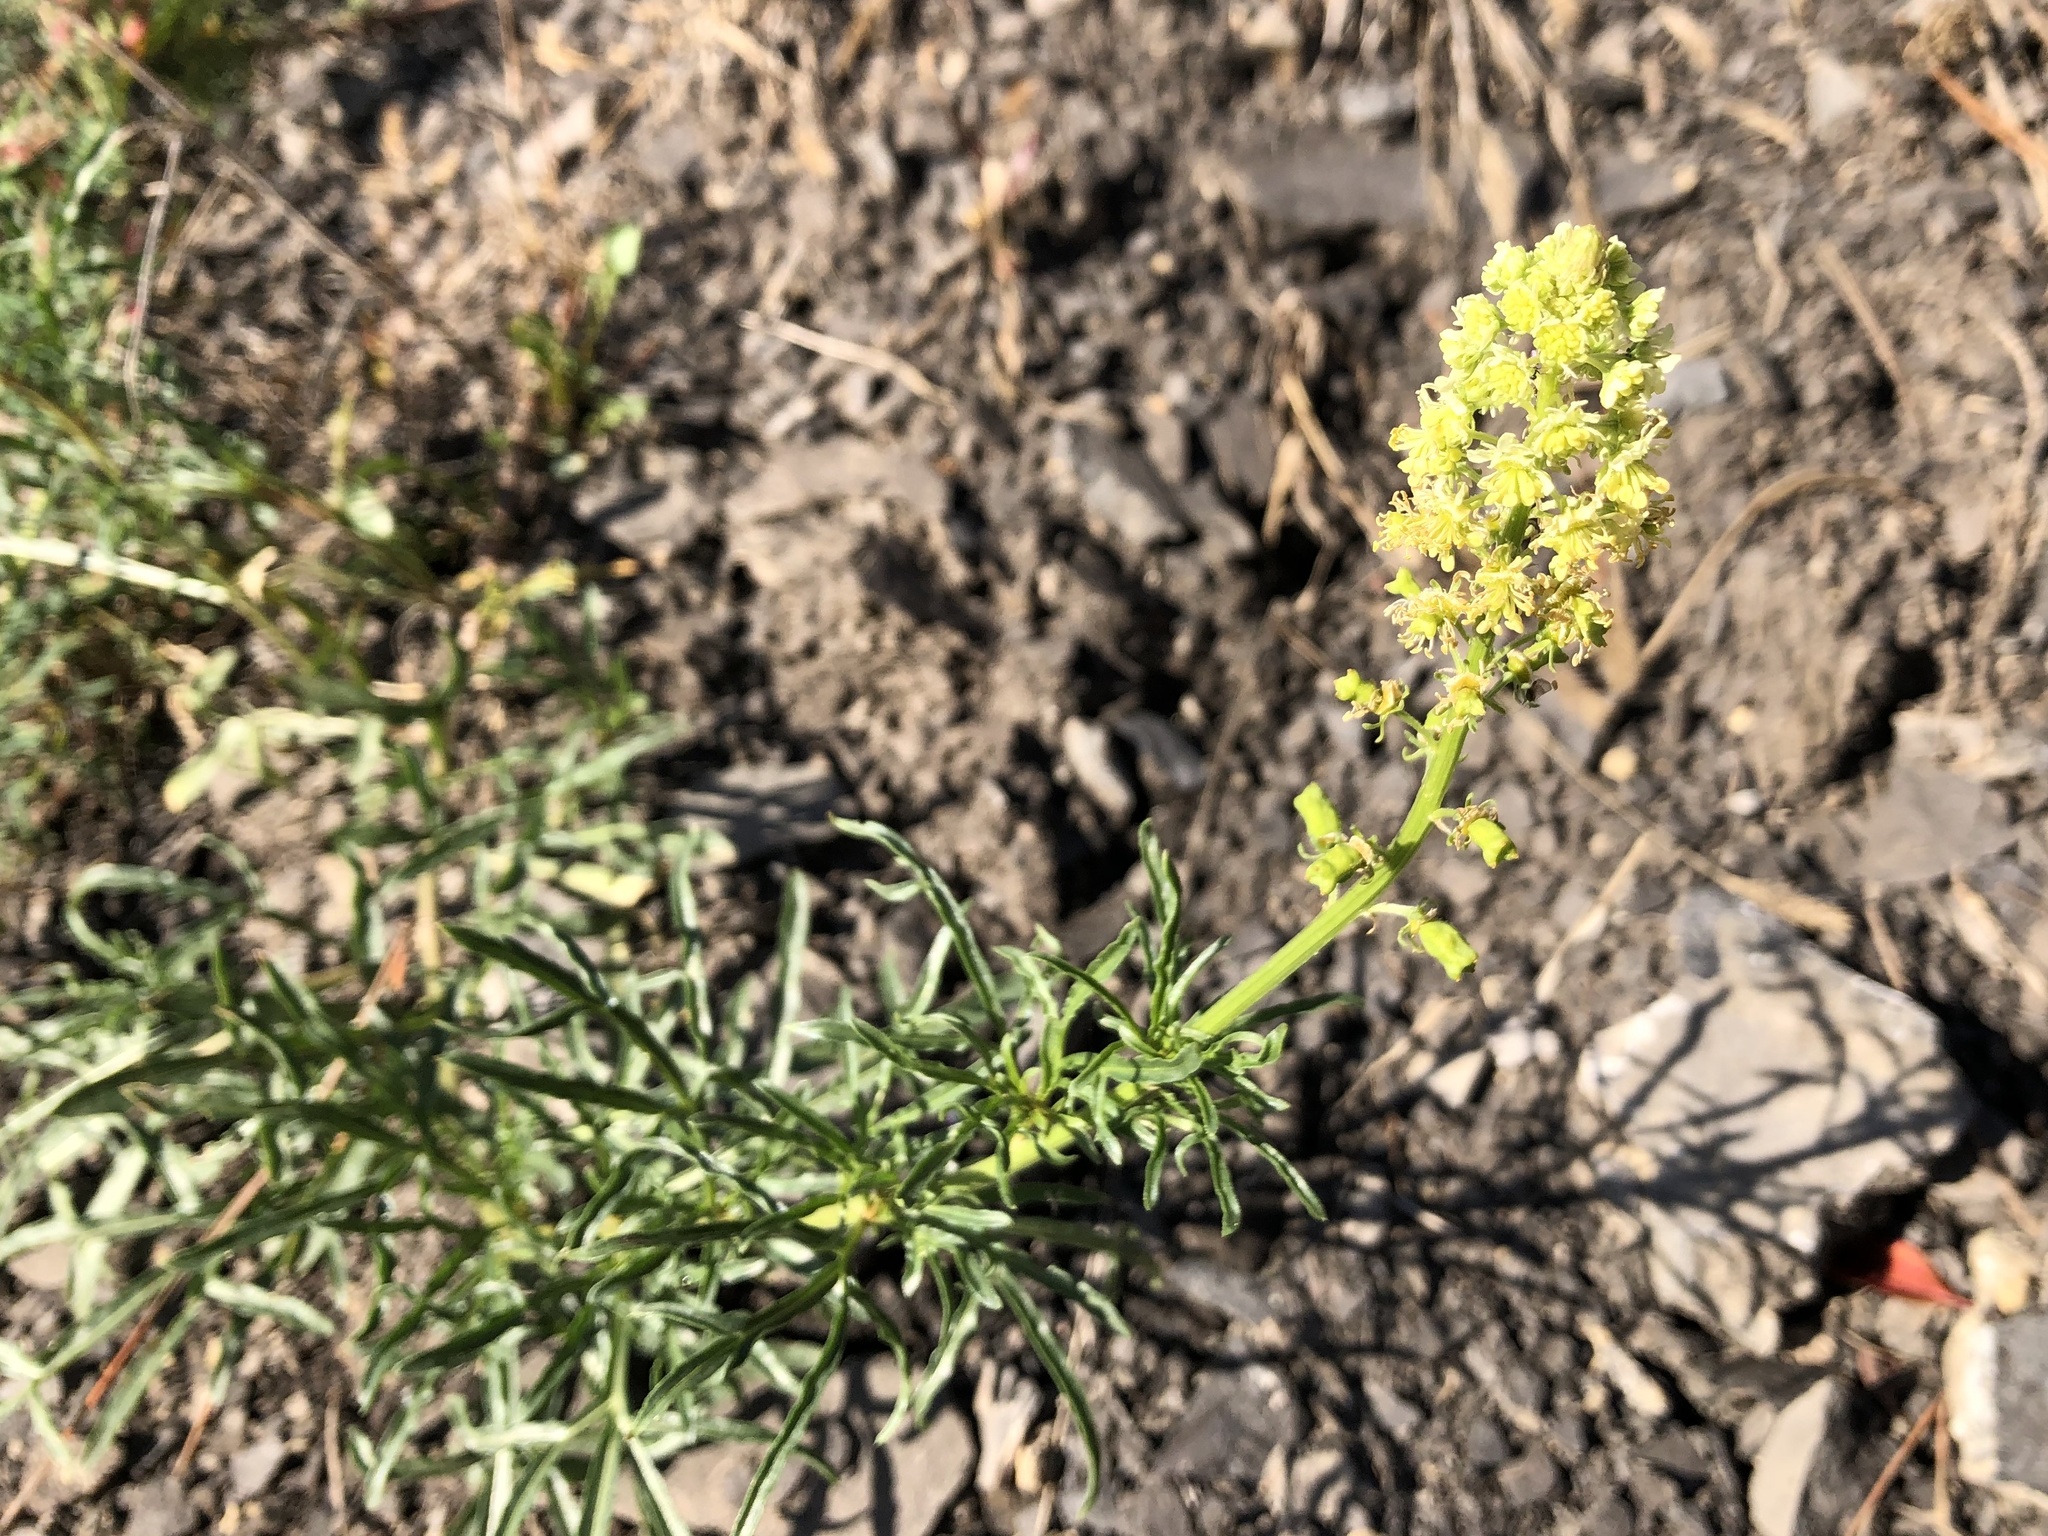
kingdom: Plantae
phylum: Tracheophyta
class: Magnoliopsida
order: Brassicales
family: Resedaceae
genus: Reseda
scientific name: Reseda lutea
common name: Wild mignonette
